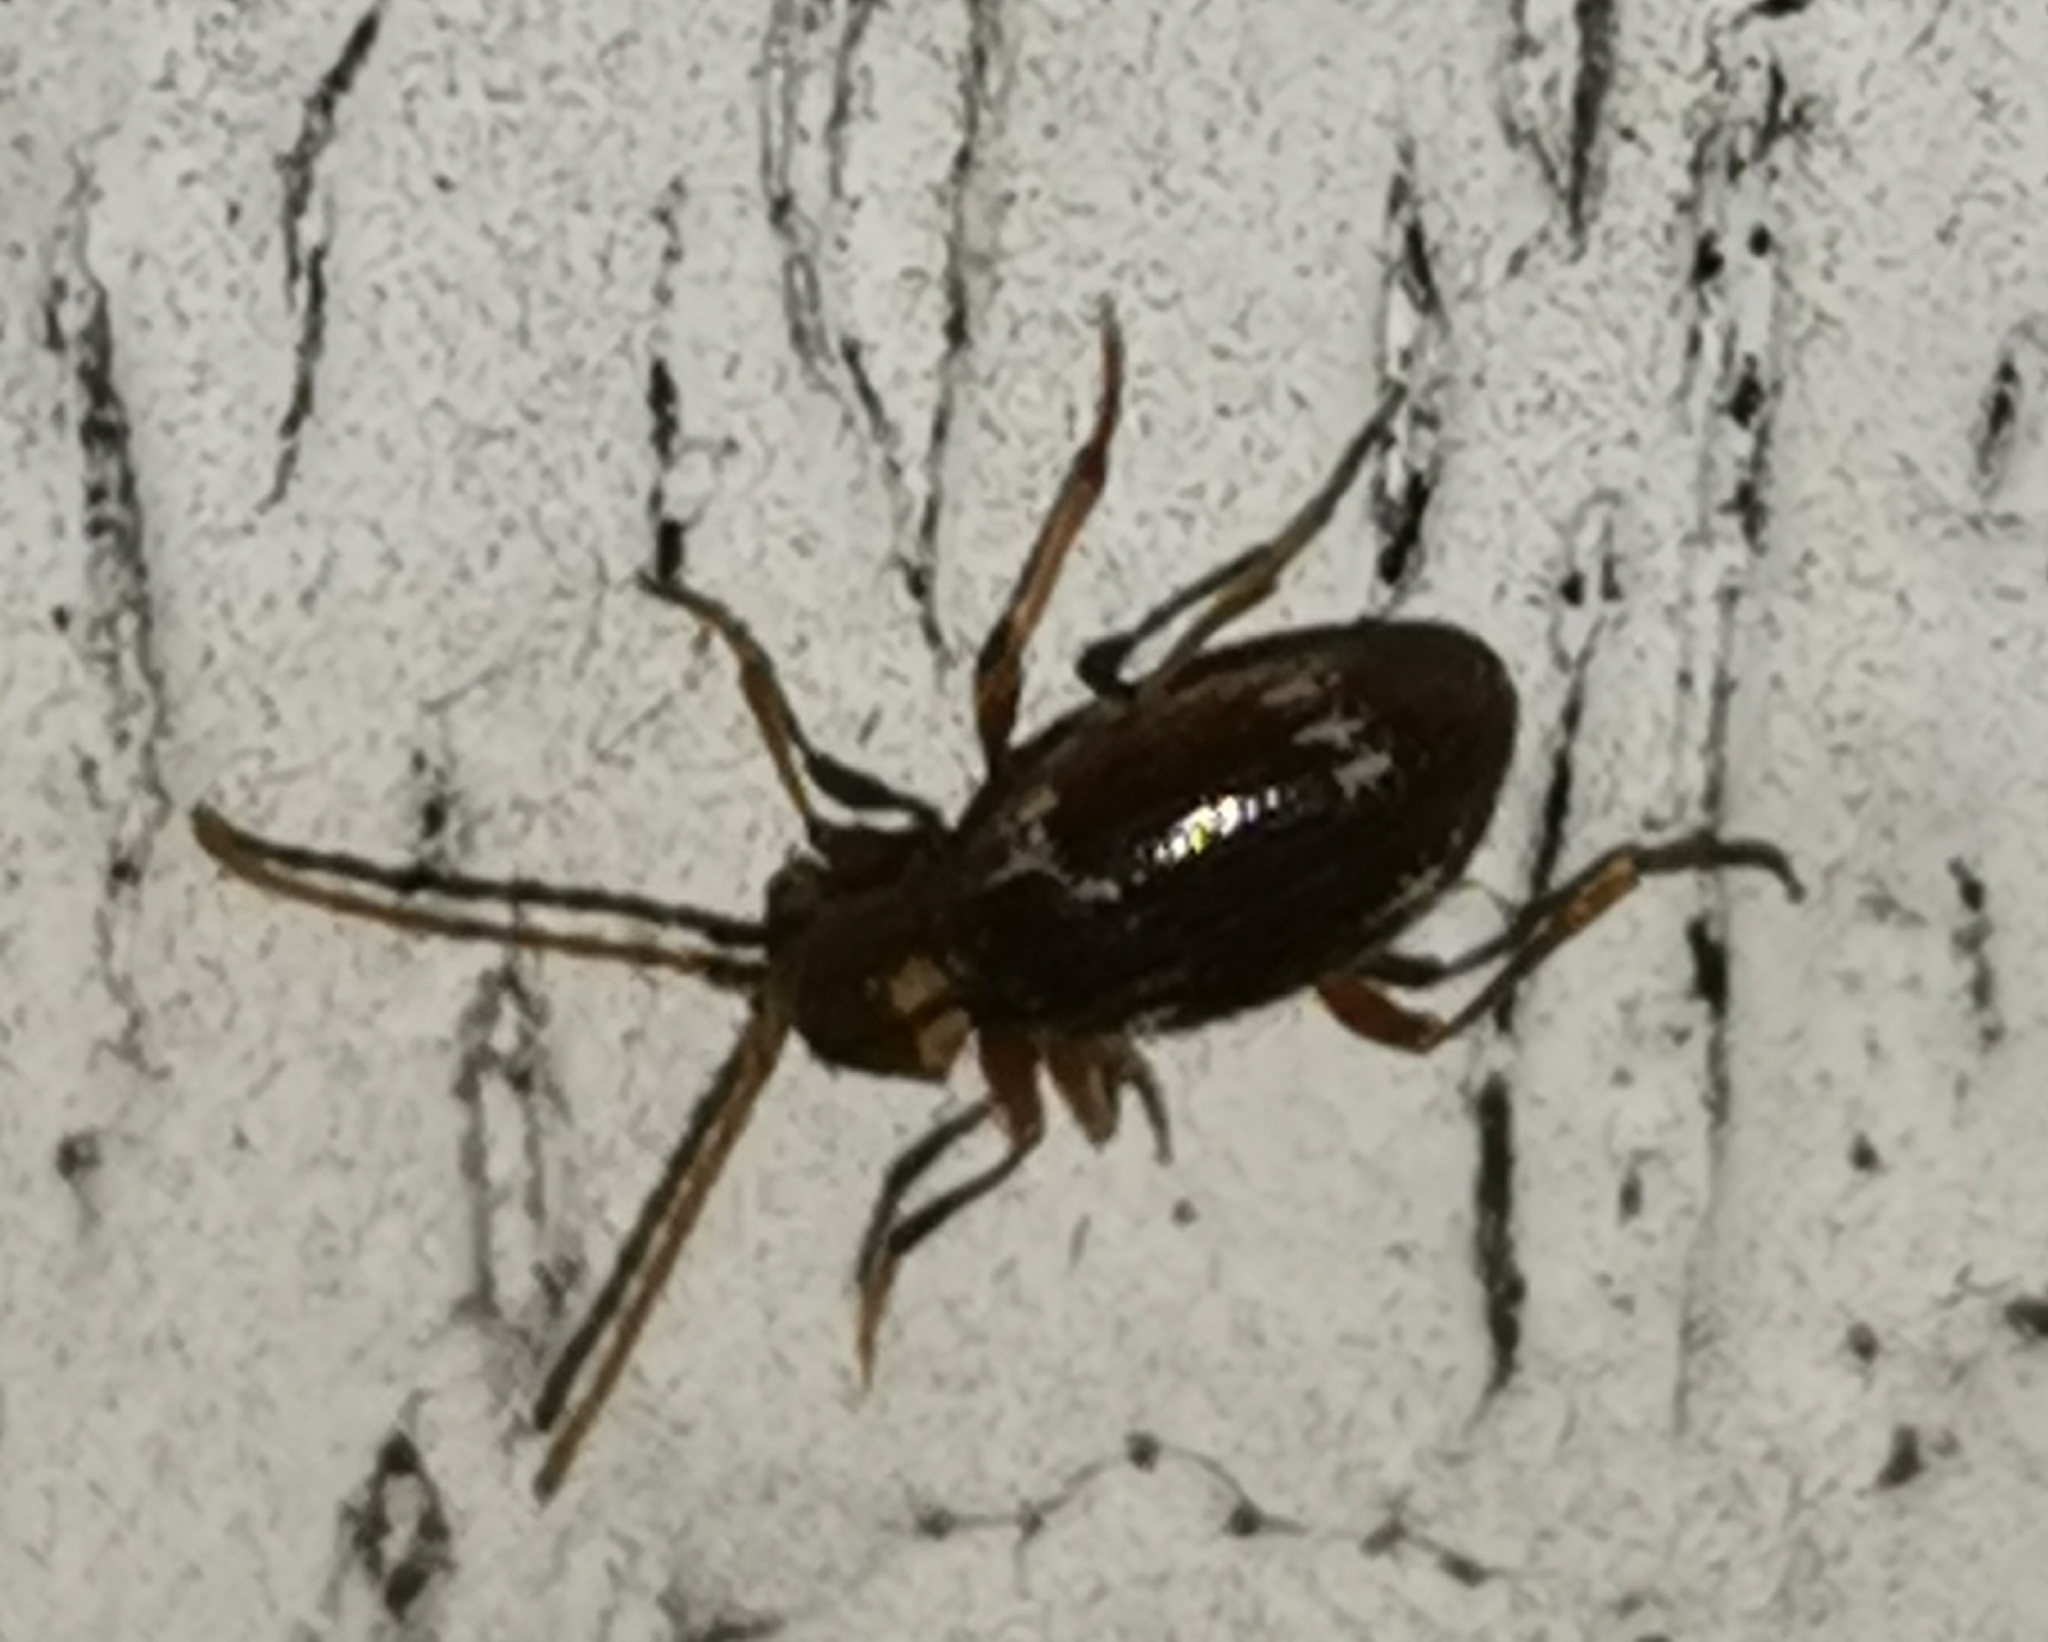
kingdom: Animalia
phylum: Arthropoda
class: Insecta
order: Coleoptera
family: Ptinidae
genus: Ptinus
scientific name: Ptinus raptor
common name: Eastern spider beetle
